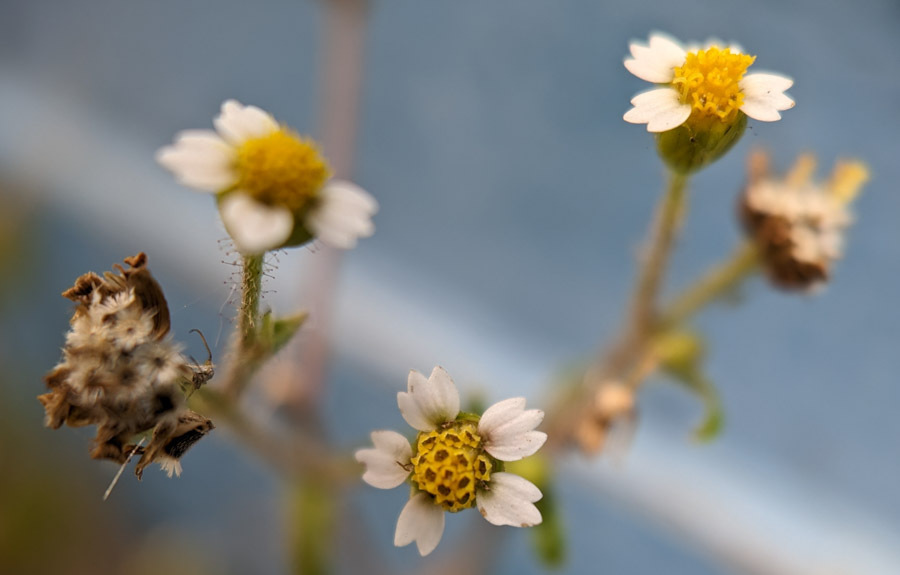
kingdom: Plantae
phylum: Tracheophyta
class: Magnoliopsida
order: Asterales
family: Asteraceae
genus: Galinsoga
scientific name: Galinsoga quadriradiata
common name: Shaggy soldier
